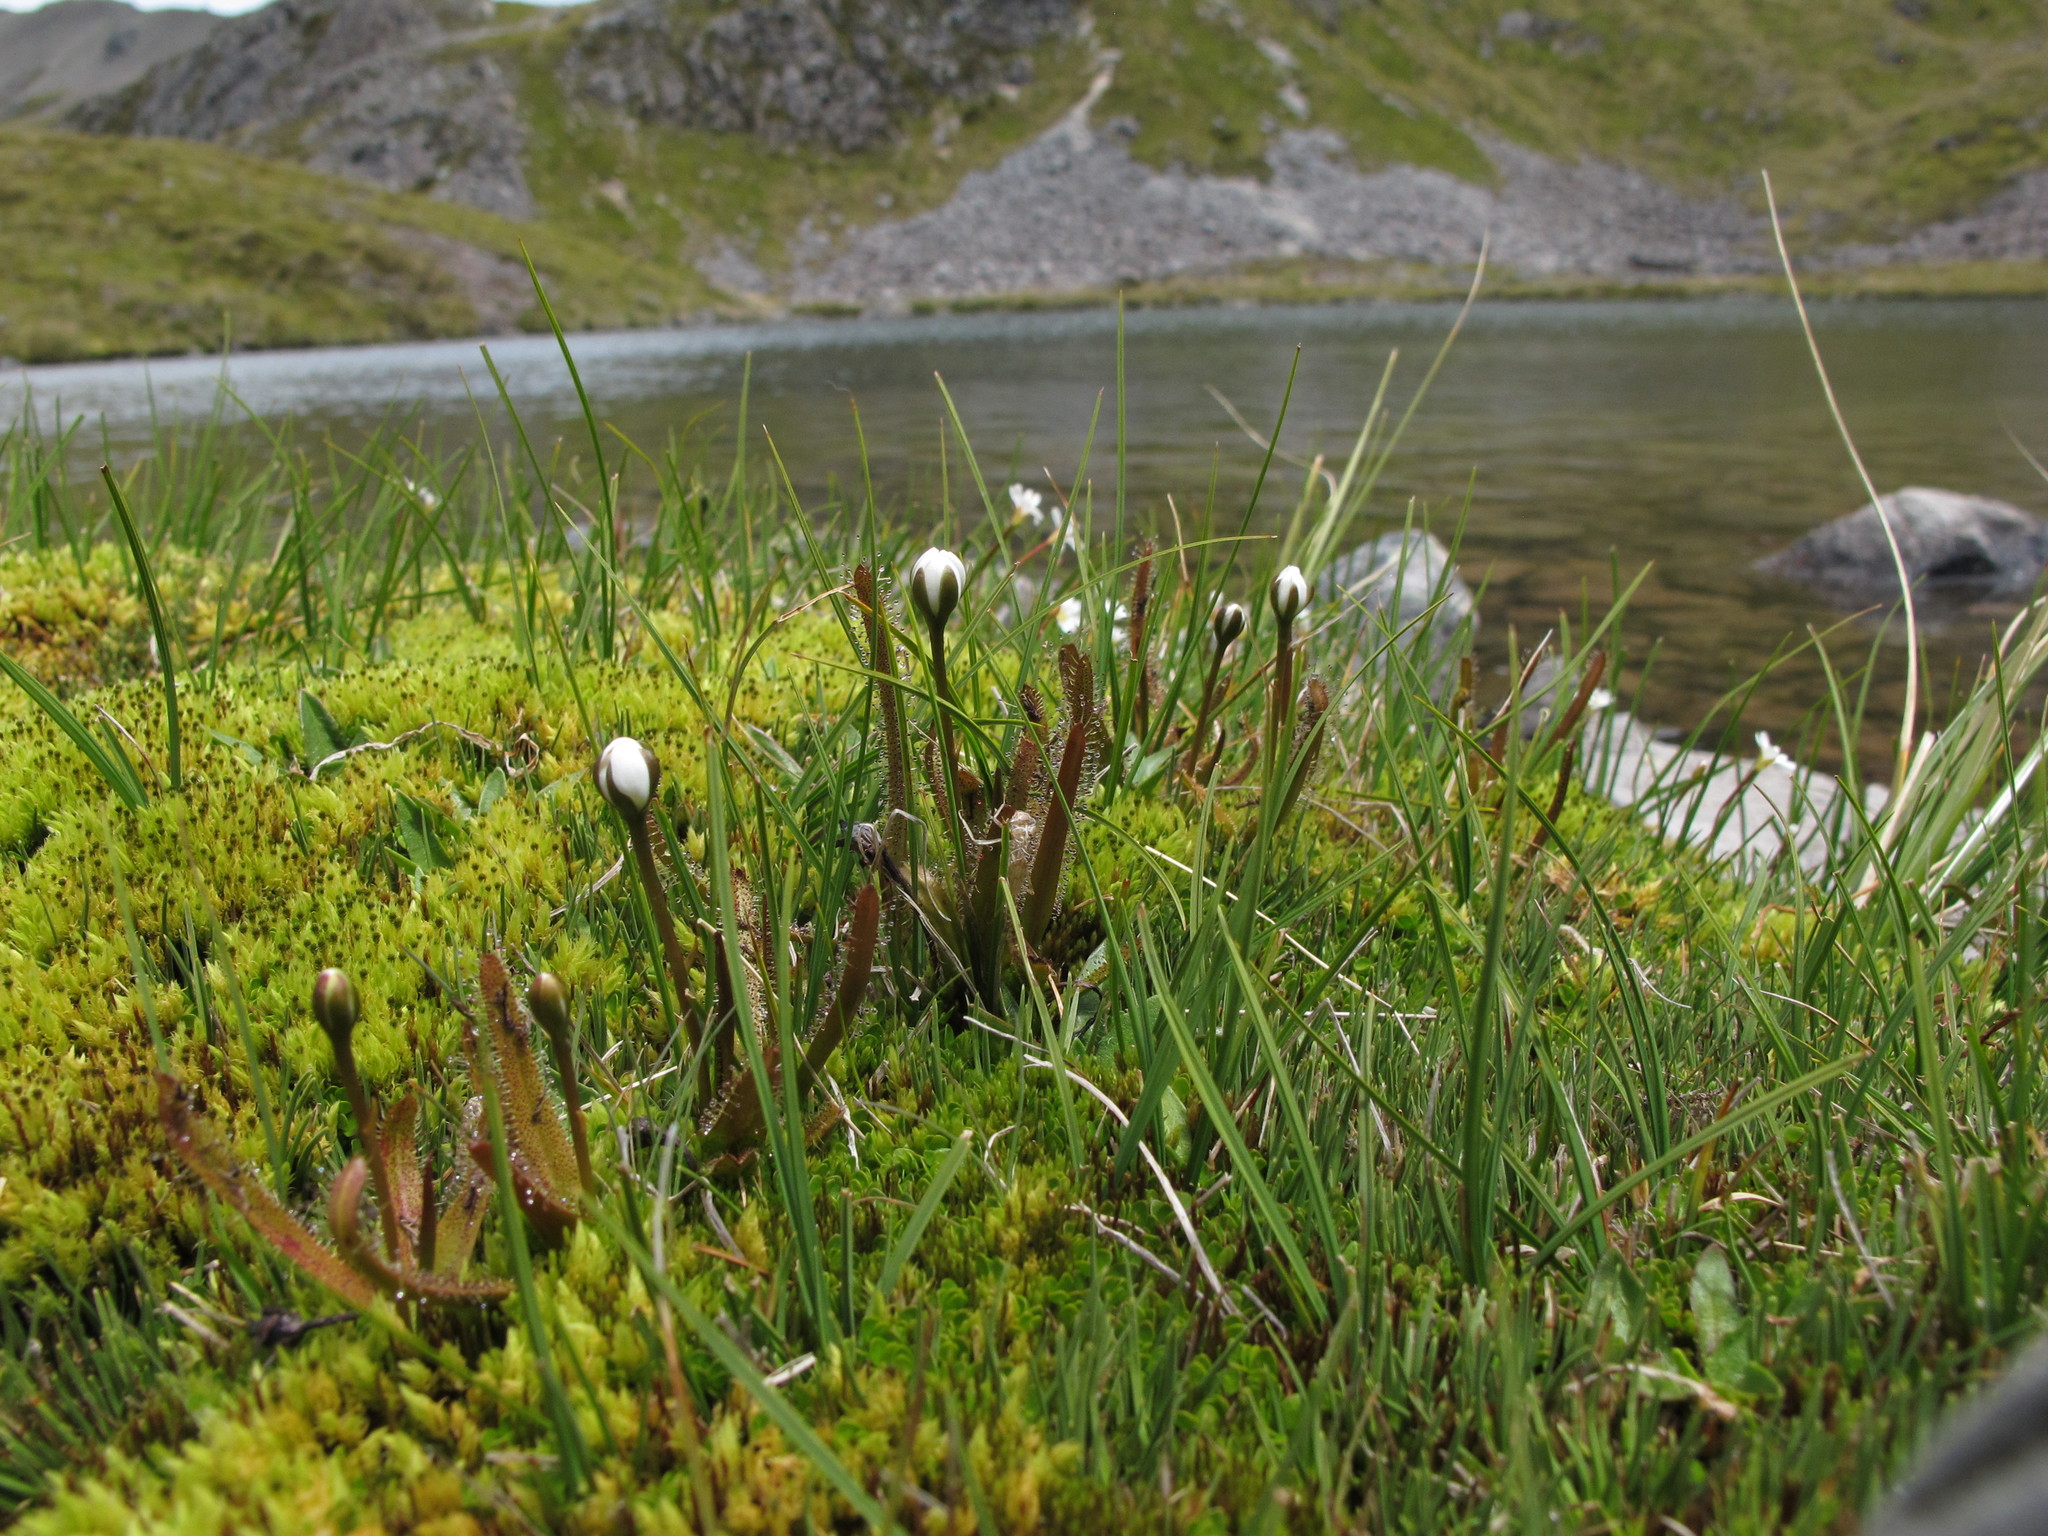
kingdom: Plantae
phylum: Tracheophyta
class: Magnoliopsida
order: Caryophyllales
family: Droseraceae
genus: Drosera
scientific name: Drosera arcturi
